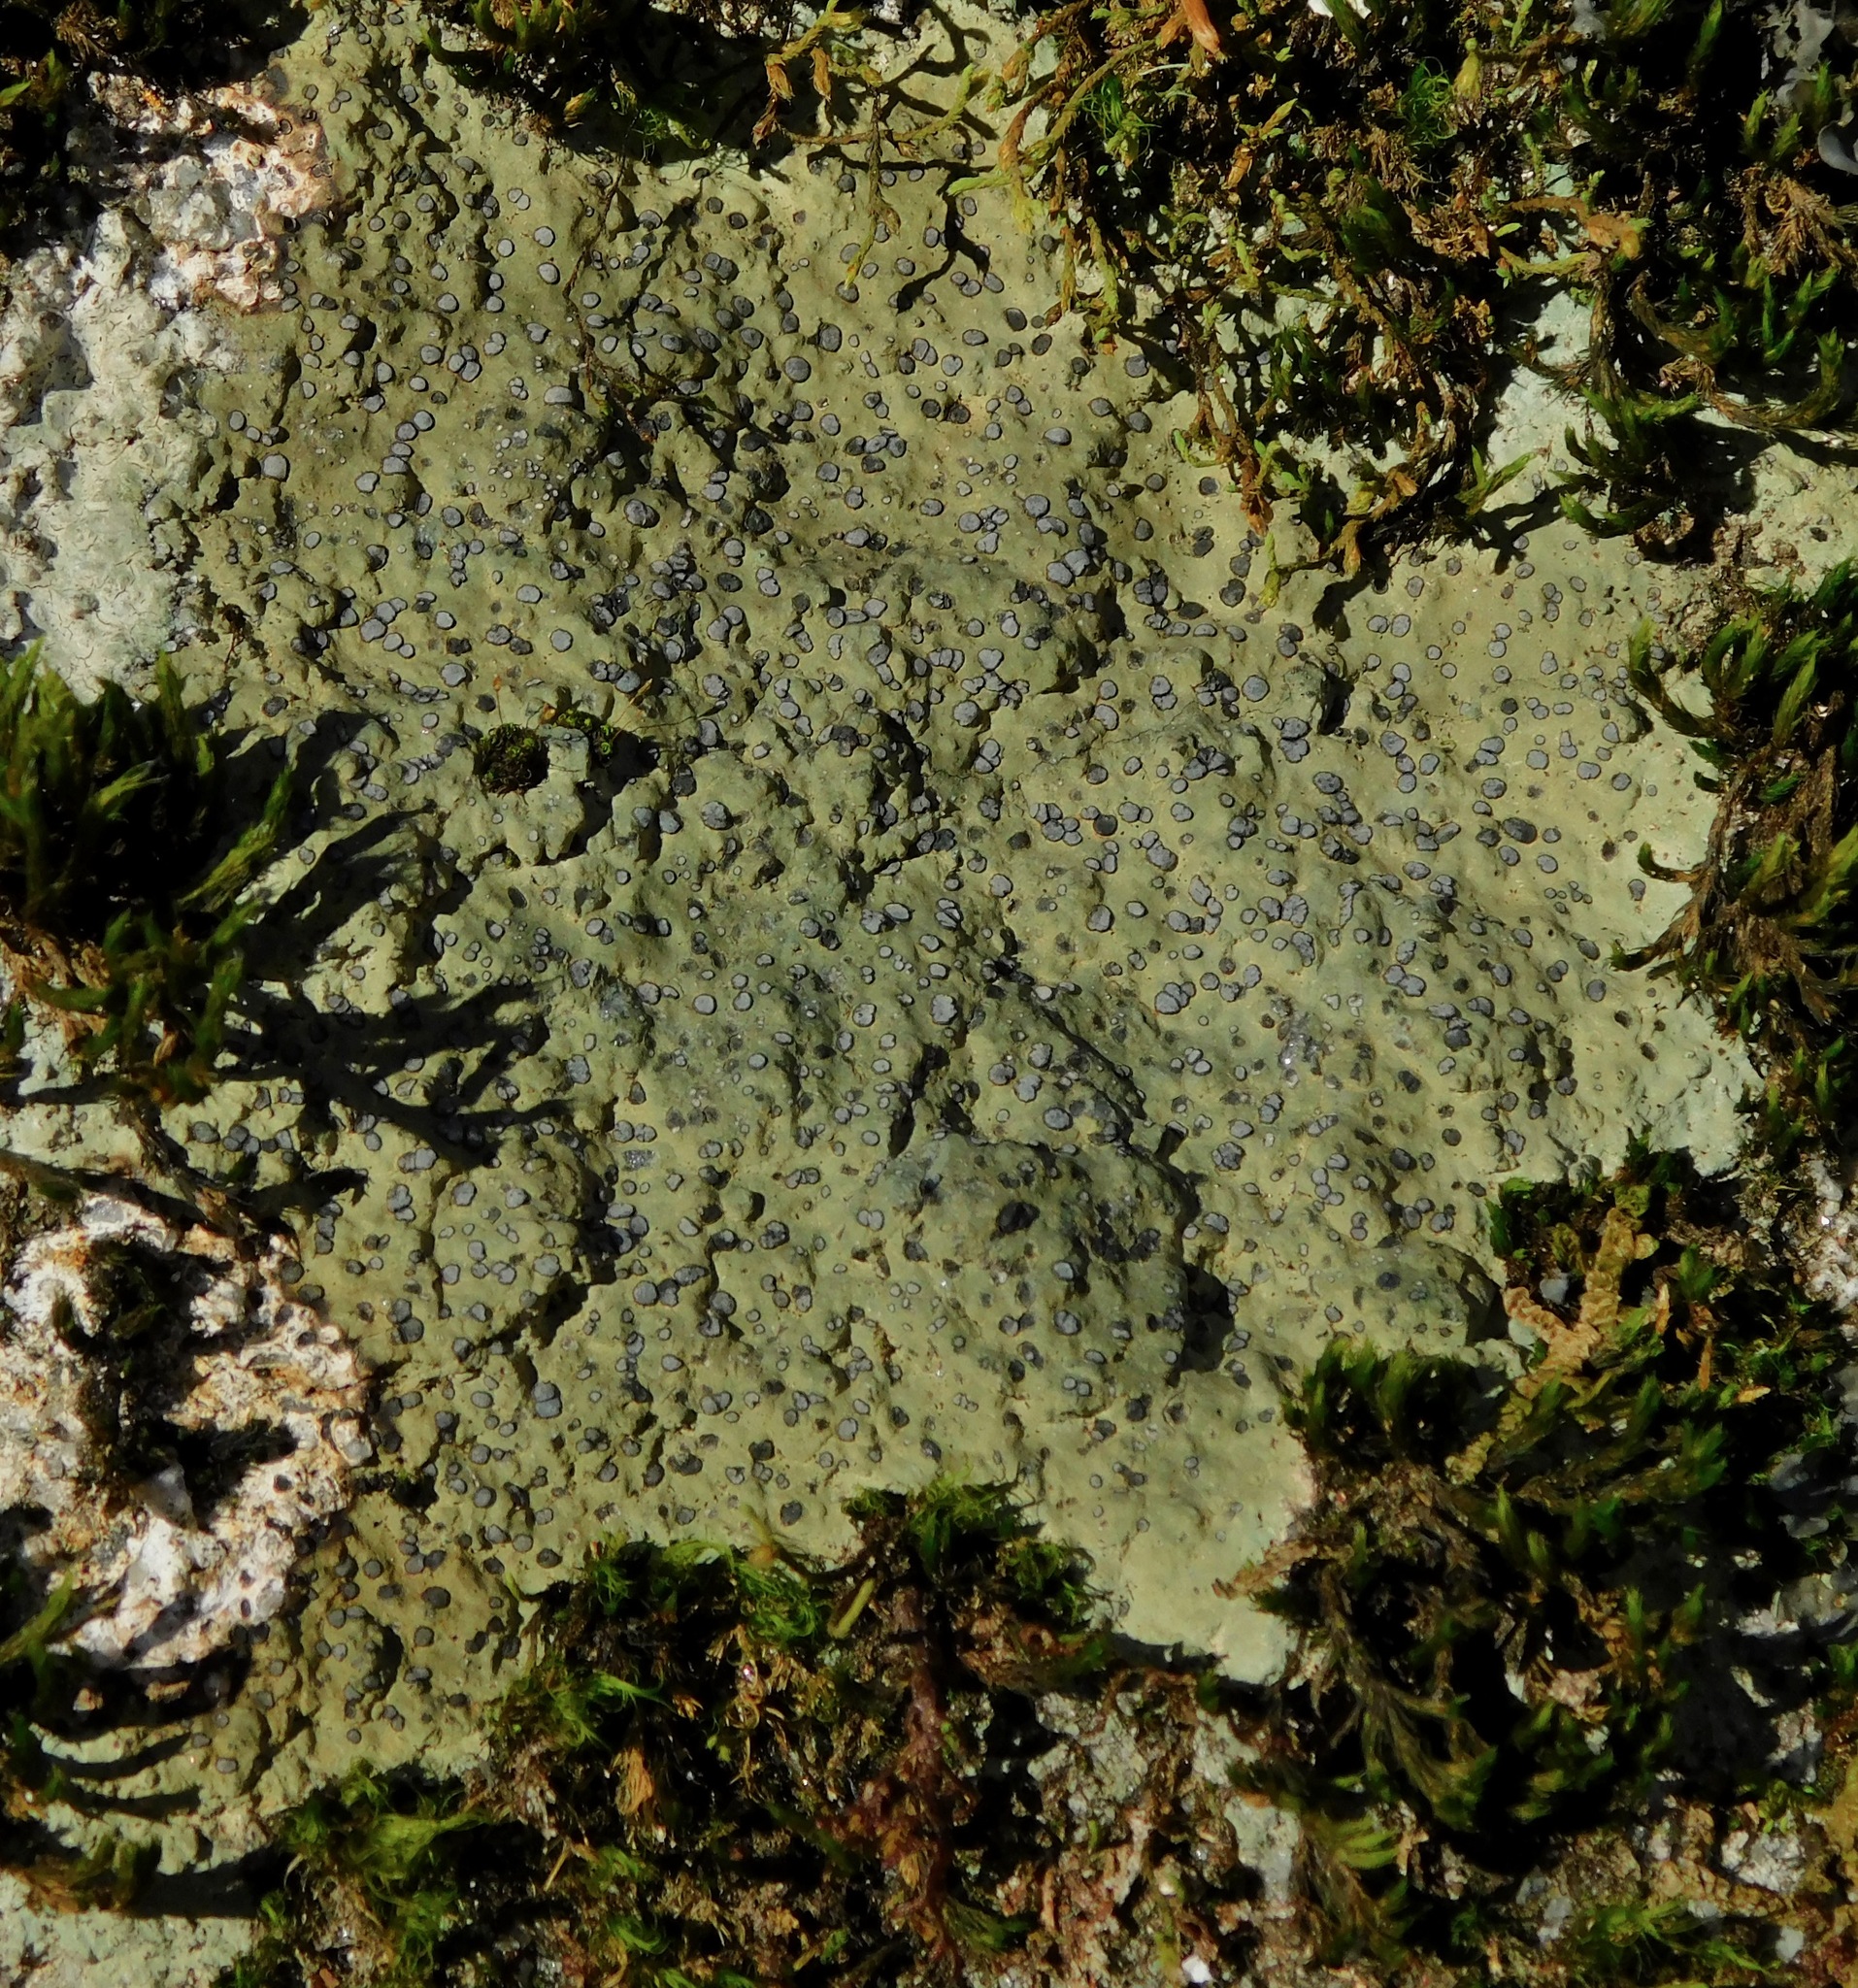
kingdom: Fungi
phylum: Ascomycota
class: Lecanoromycetes
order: Lecideales
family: Lecideaceae
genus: Porpidia
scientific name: Porpidia albocaerulescens
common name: Smokey-eyed boulder lichen
